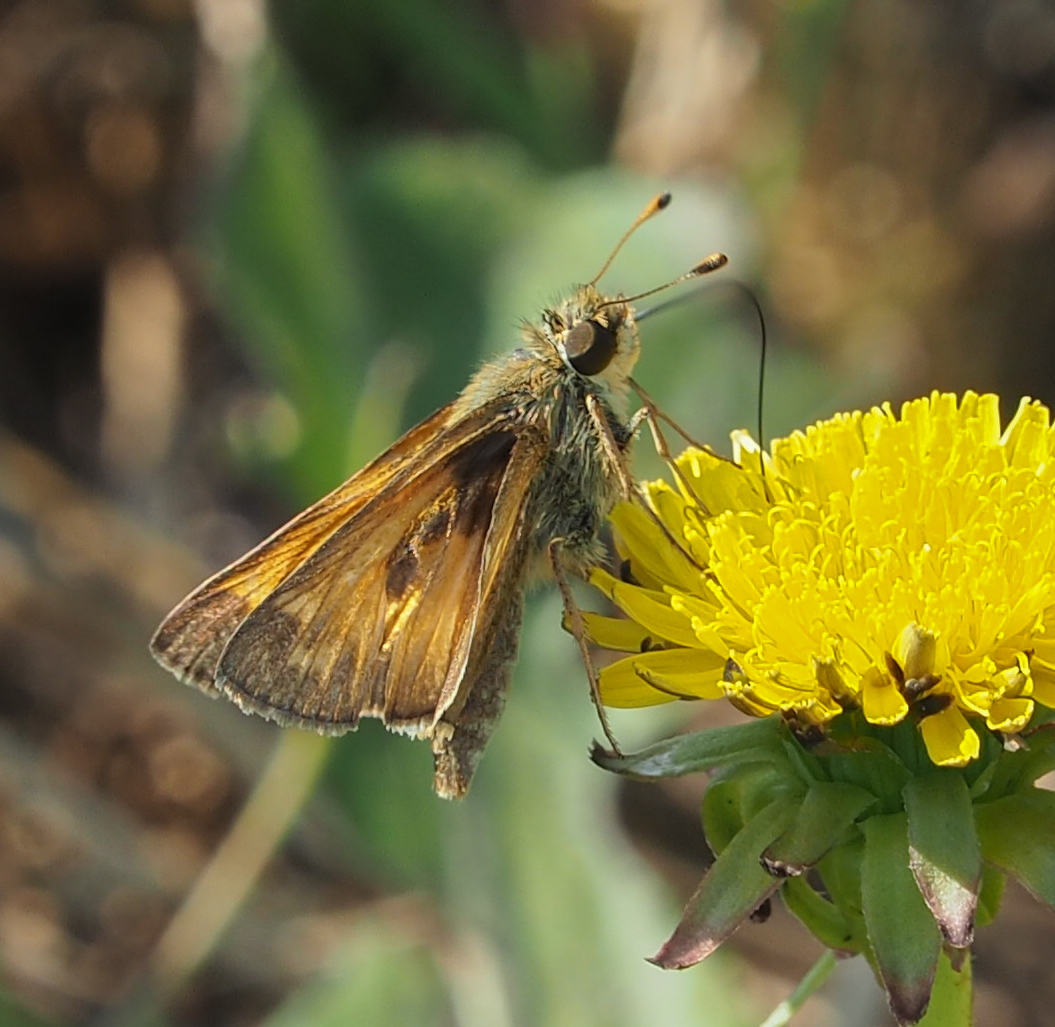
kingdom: Animalia
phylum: Arthropoda
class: Insecta
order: Lepidoptera
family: Hesperiidae
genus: Atalopedes
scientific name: Atalopedes
